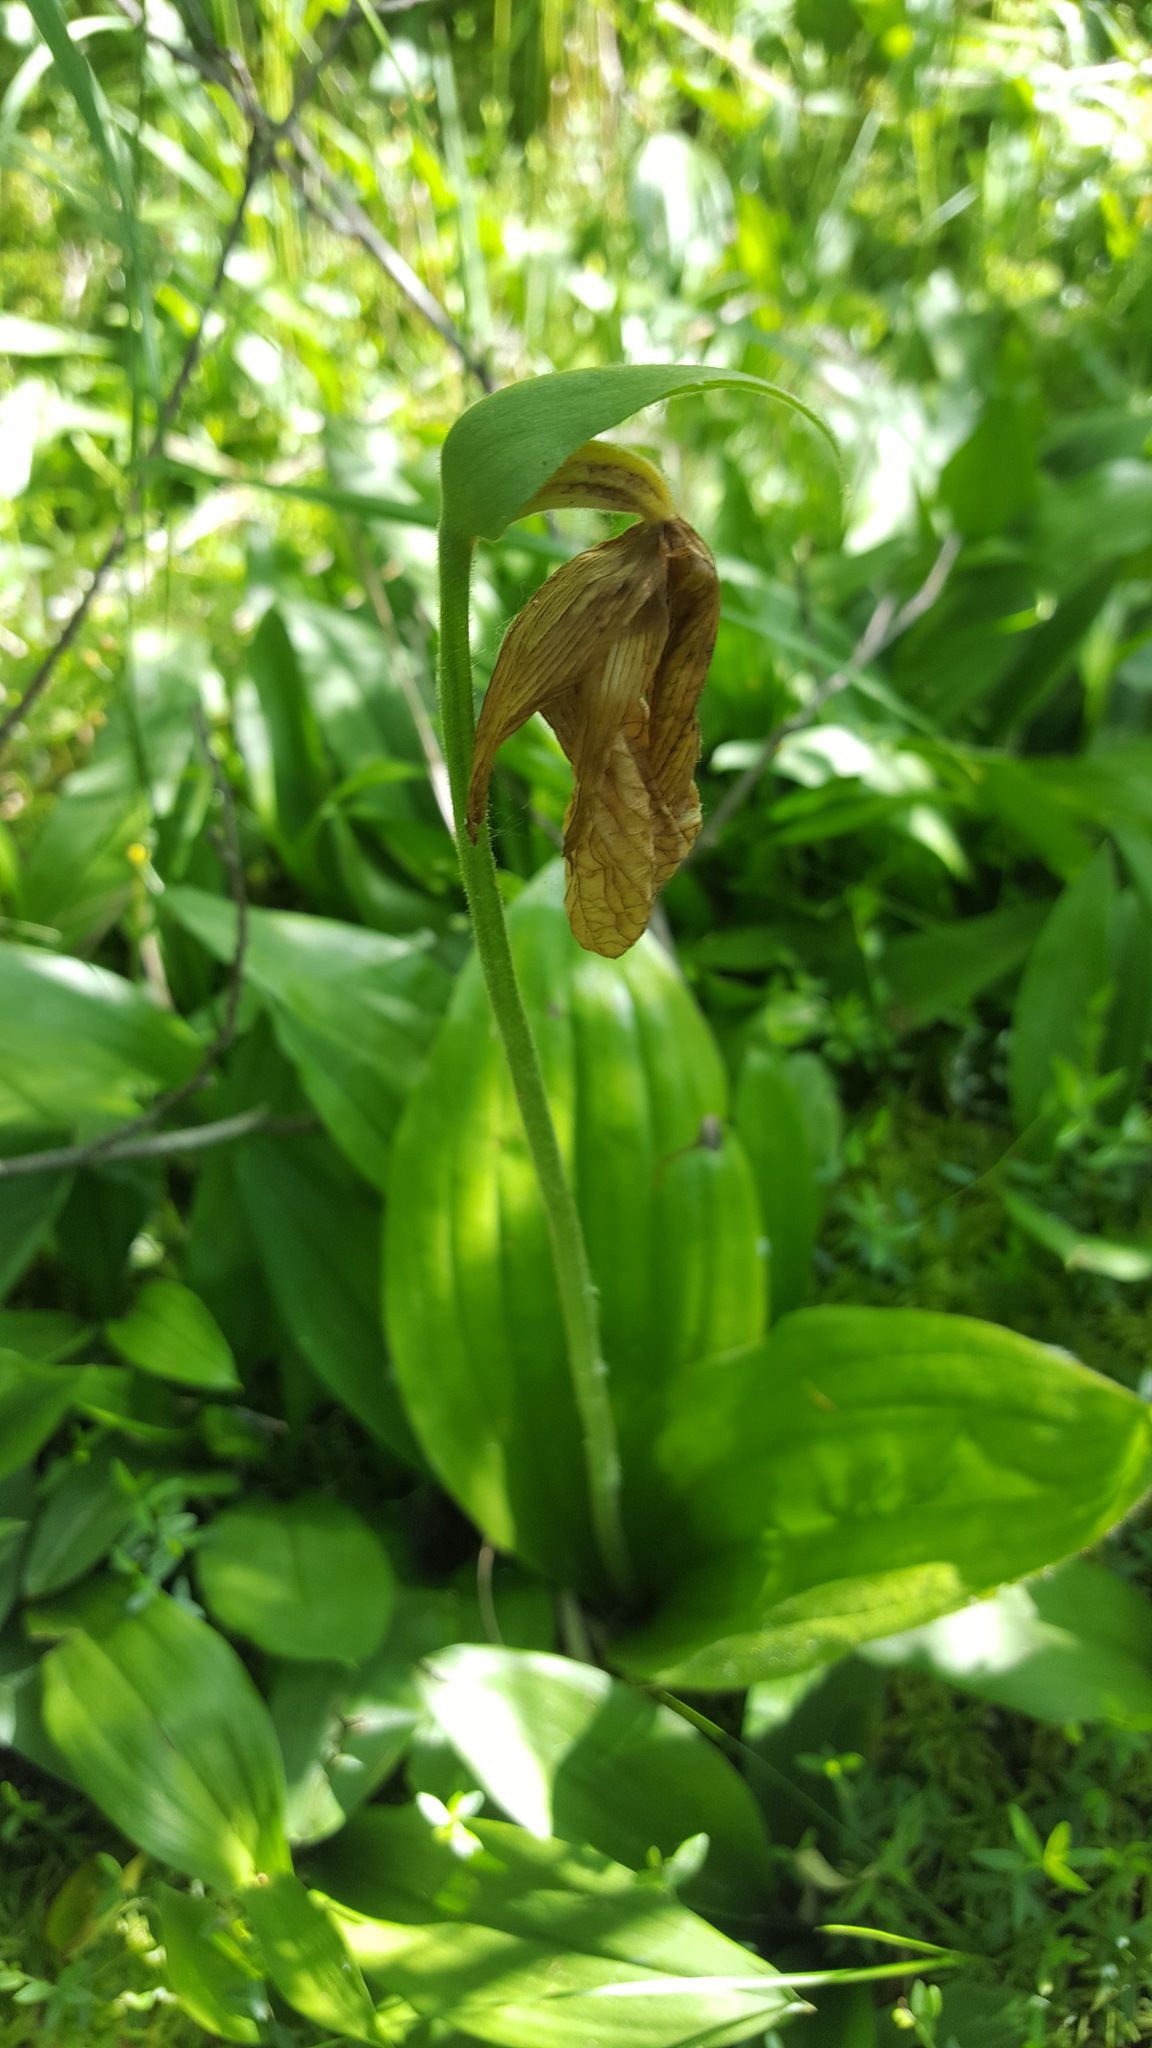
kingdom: Plantae
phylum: Tracheophyta
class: Liliopsida
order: Asparagales
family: Orchidaceae
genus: Cypripedium
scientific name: Cypripedium acaule
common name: Pink lady's-slipper
